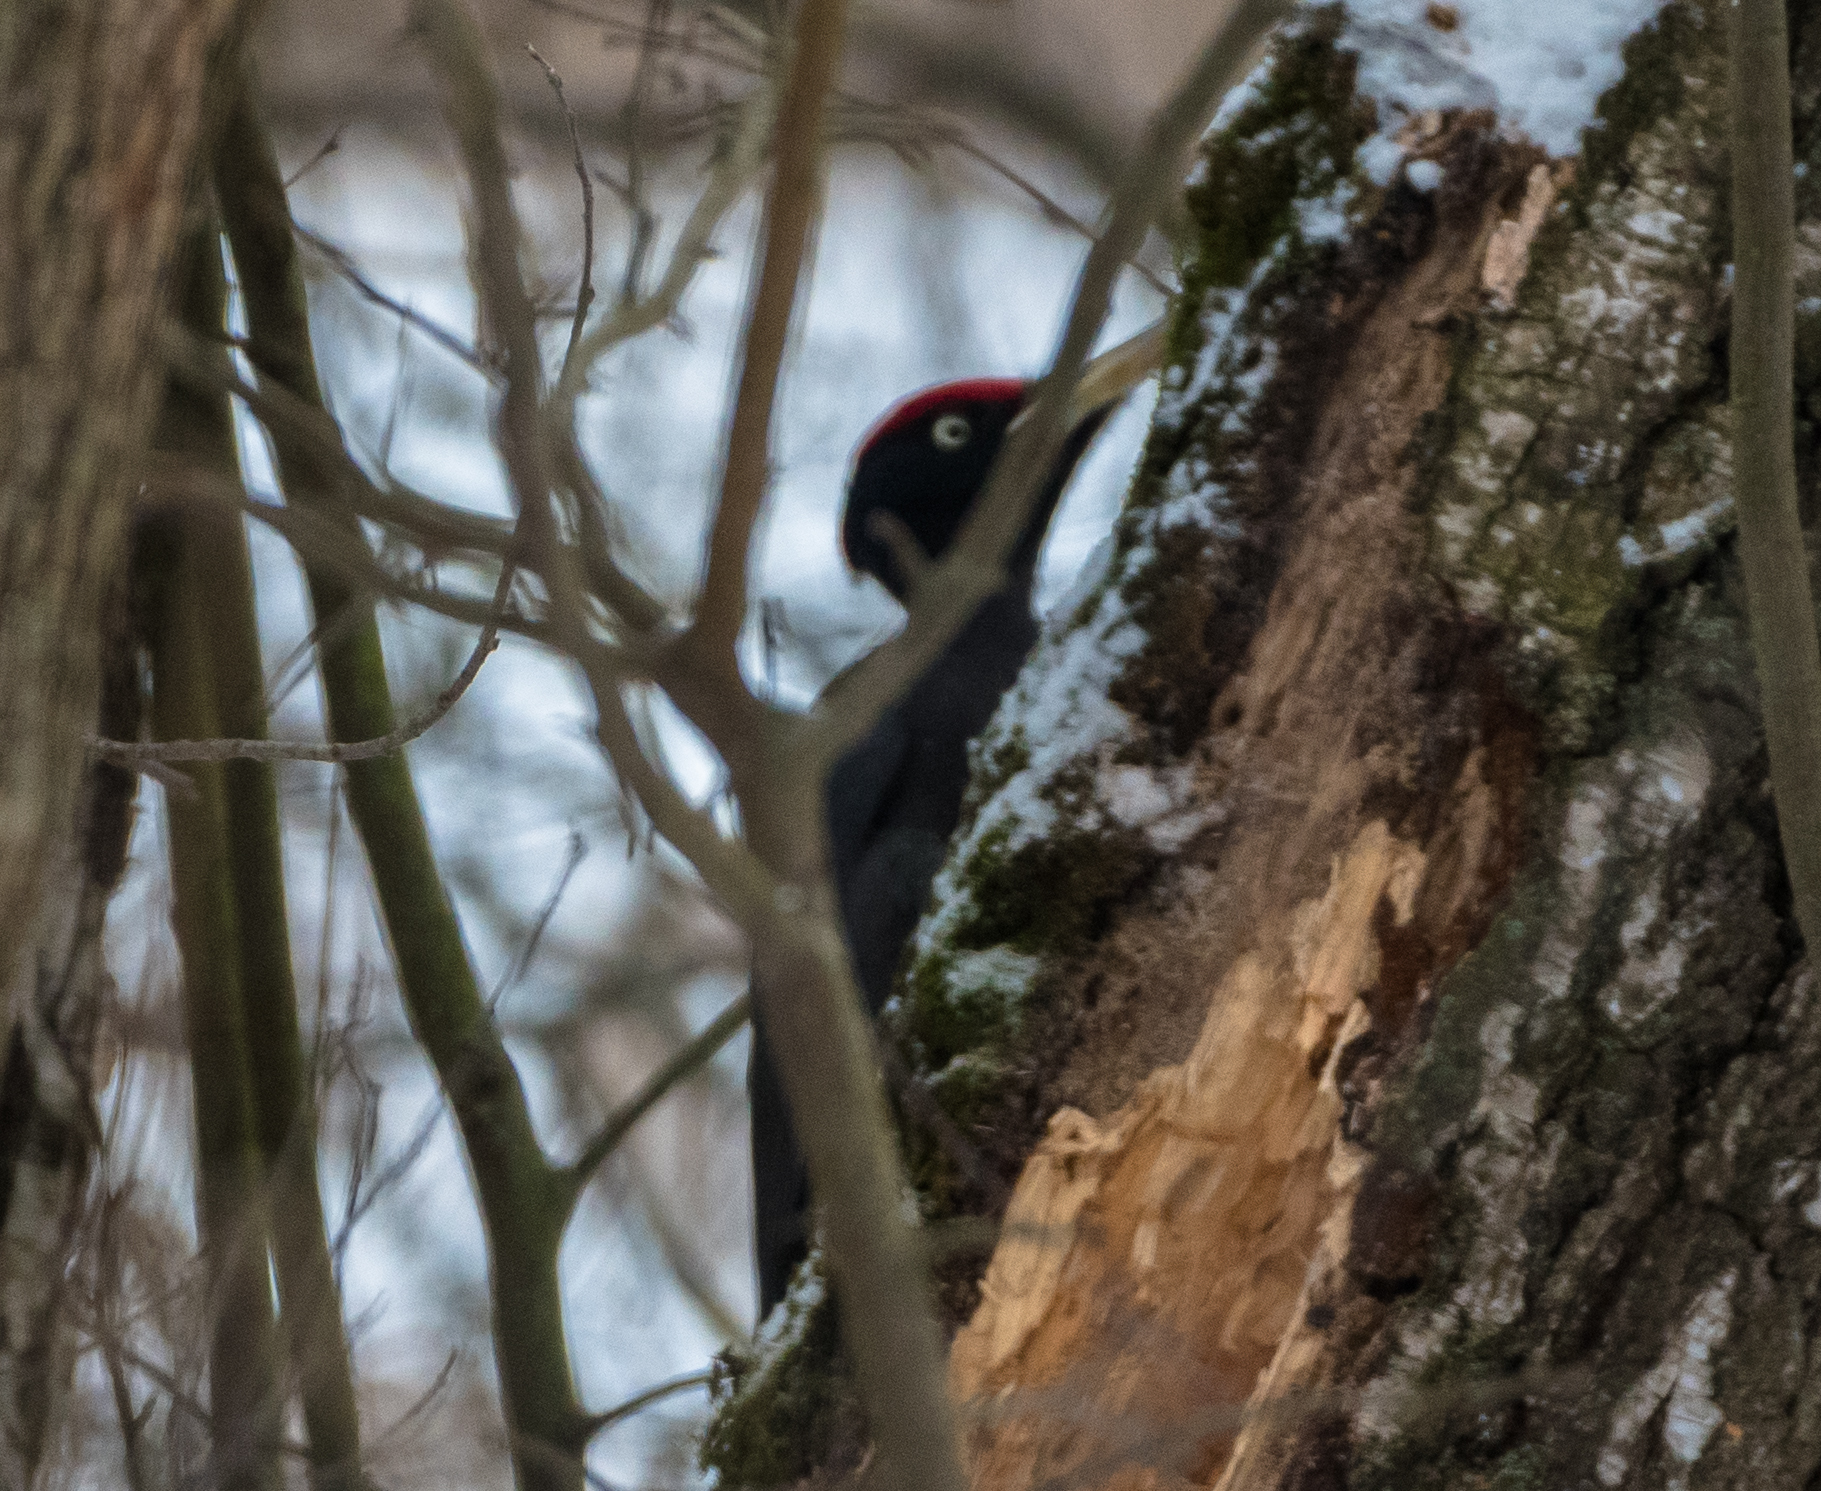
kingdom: Animalia
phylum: Chordata
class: Aves
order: Piciformes
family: Picidae
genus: Dryocopus
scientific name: Dryocopus martius
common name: Black woodpecker
